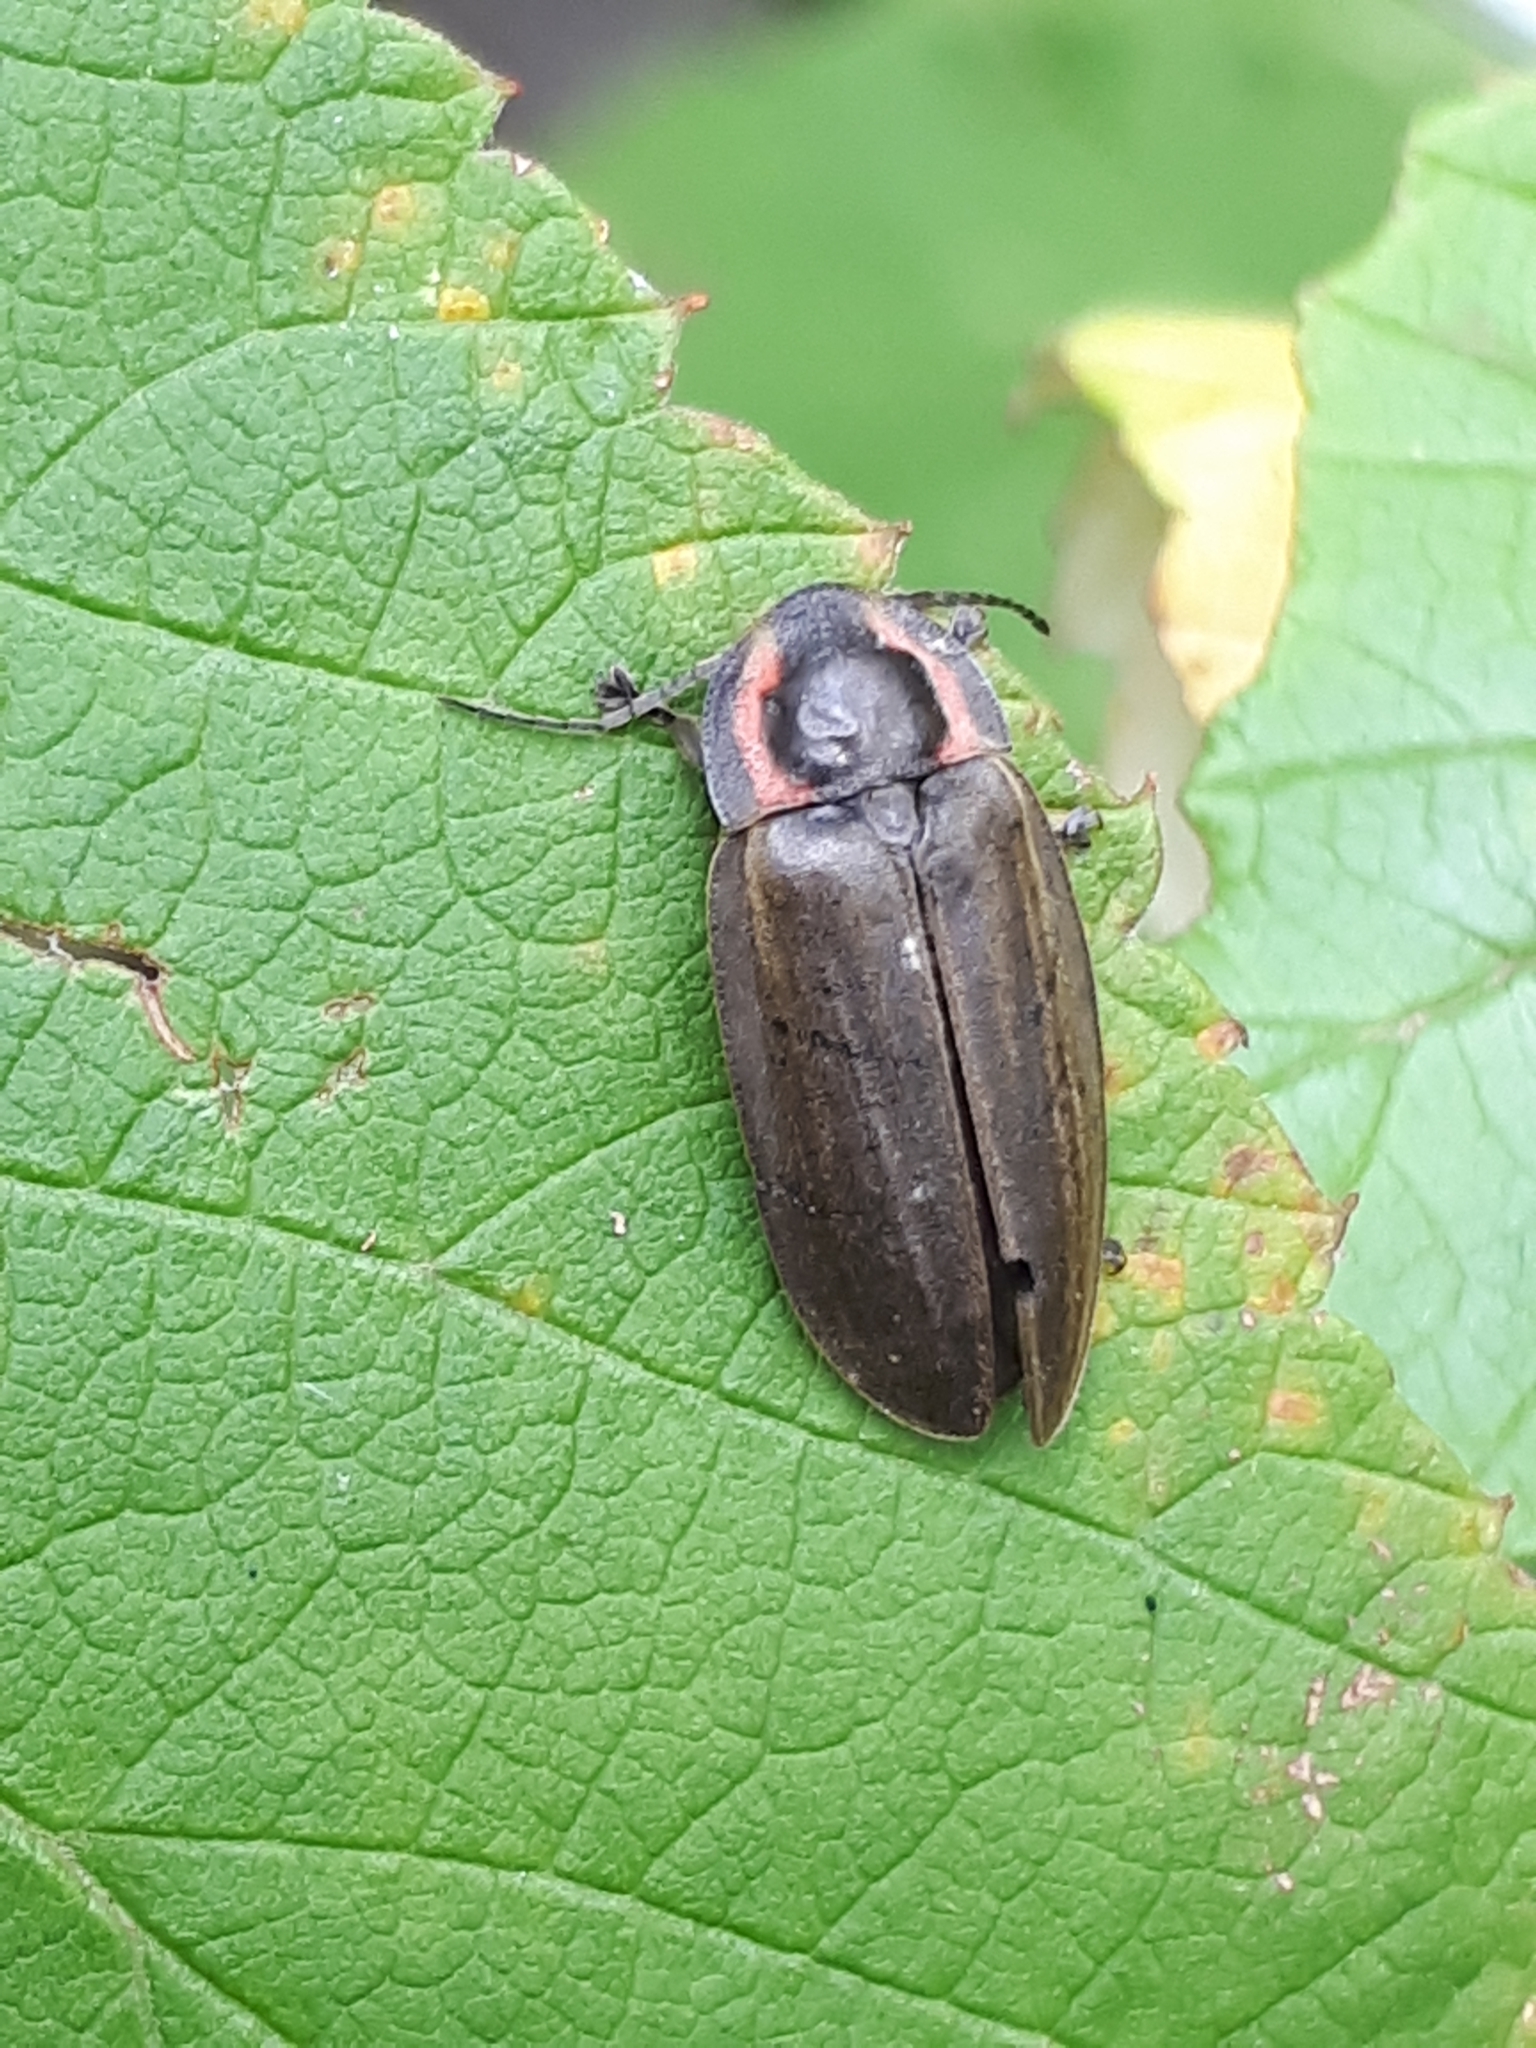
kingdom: Animalia
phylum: Arthropoda
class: Insecta
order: Coleoptera
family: Lampyridae
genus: Photinus
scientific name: Photinus corrusca
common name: Winter firefly
